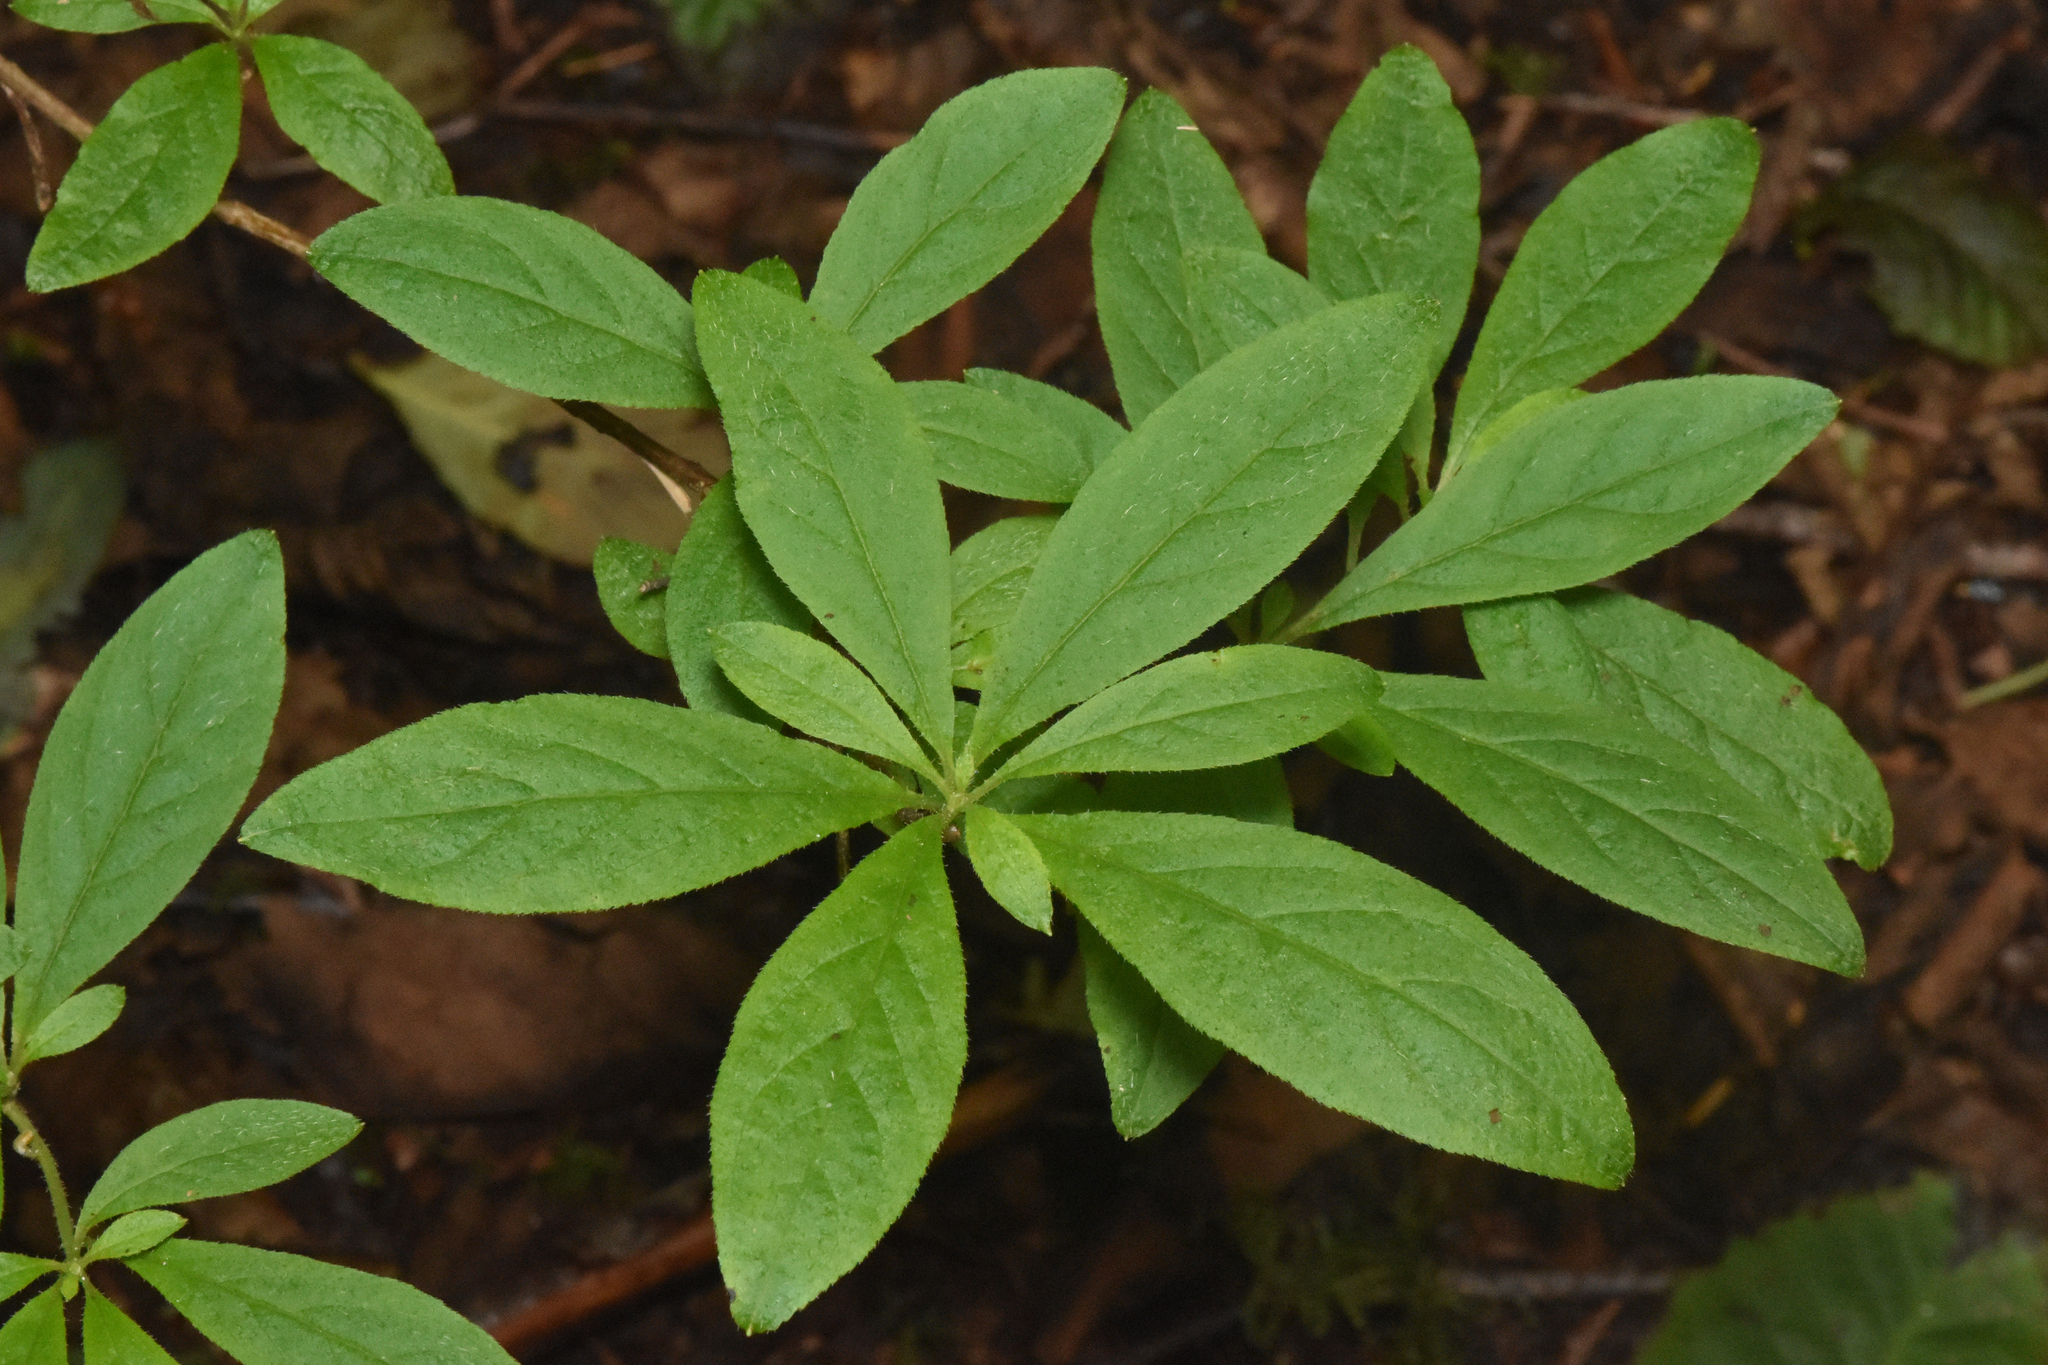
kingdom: Plantae
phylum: Tracheophyta
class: Magnoliopsida
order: Ericales
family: Ericaceae
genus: Rhododendron
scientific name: Rhododendron menziesii
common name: Pacific menziesia
